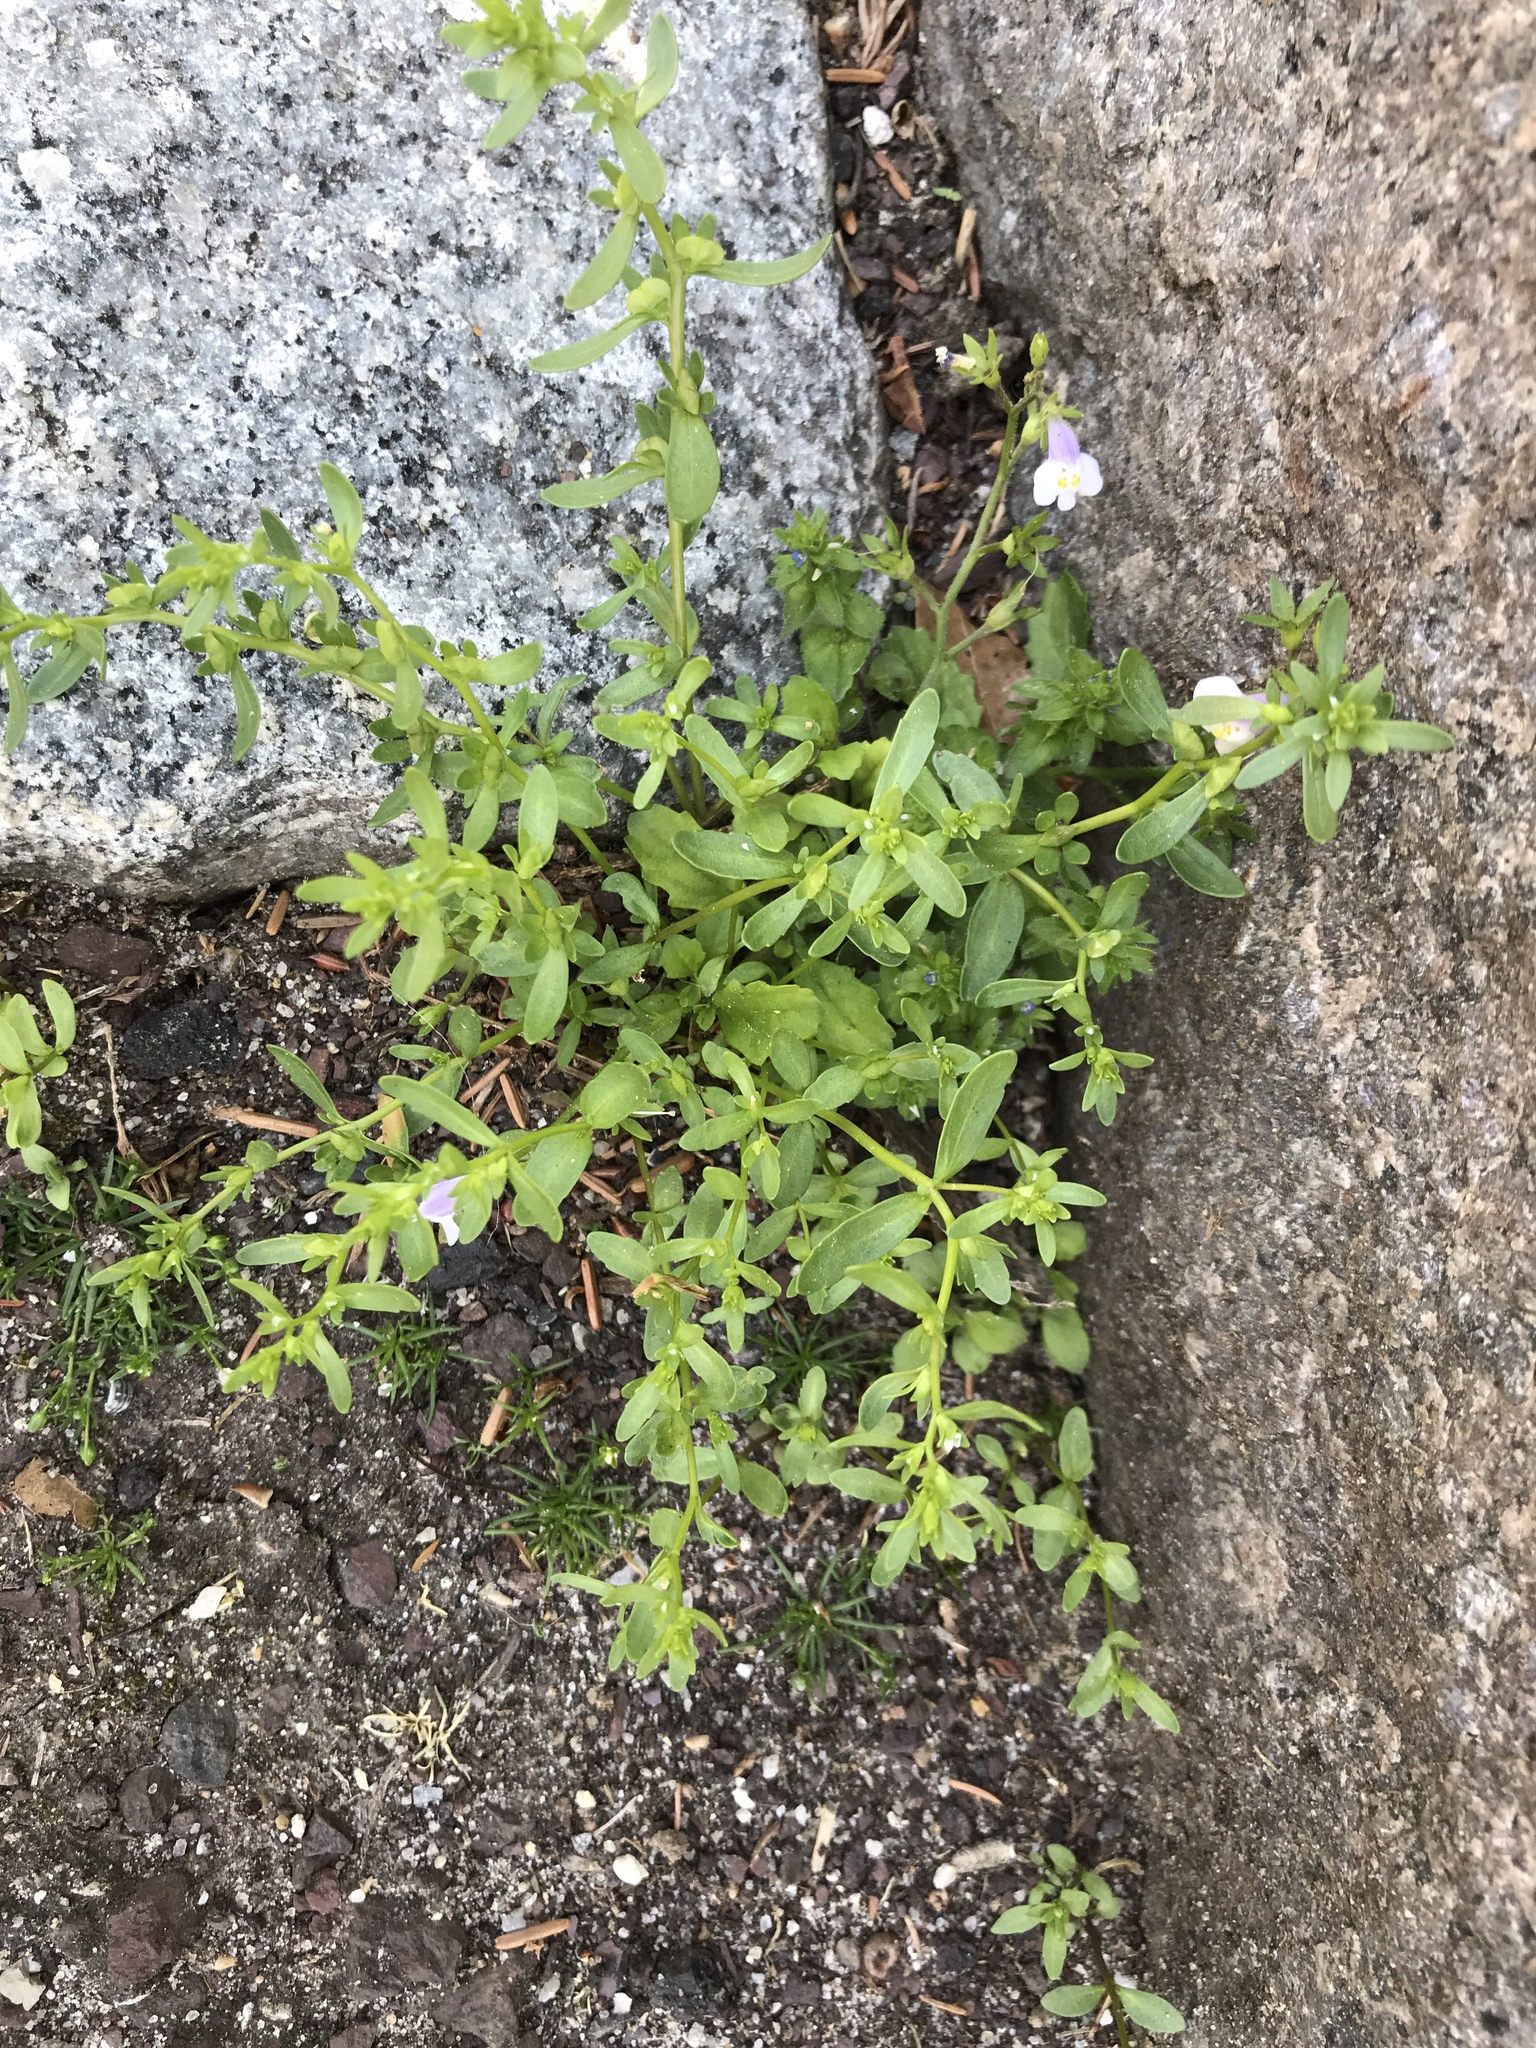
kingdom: Plantae
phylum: Tracheophyta
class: Magnoliopsida
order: Lamiales
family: Mazaceae
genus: Mazus
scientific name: Mazus pumilus
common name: Japanese mazus
